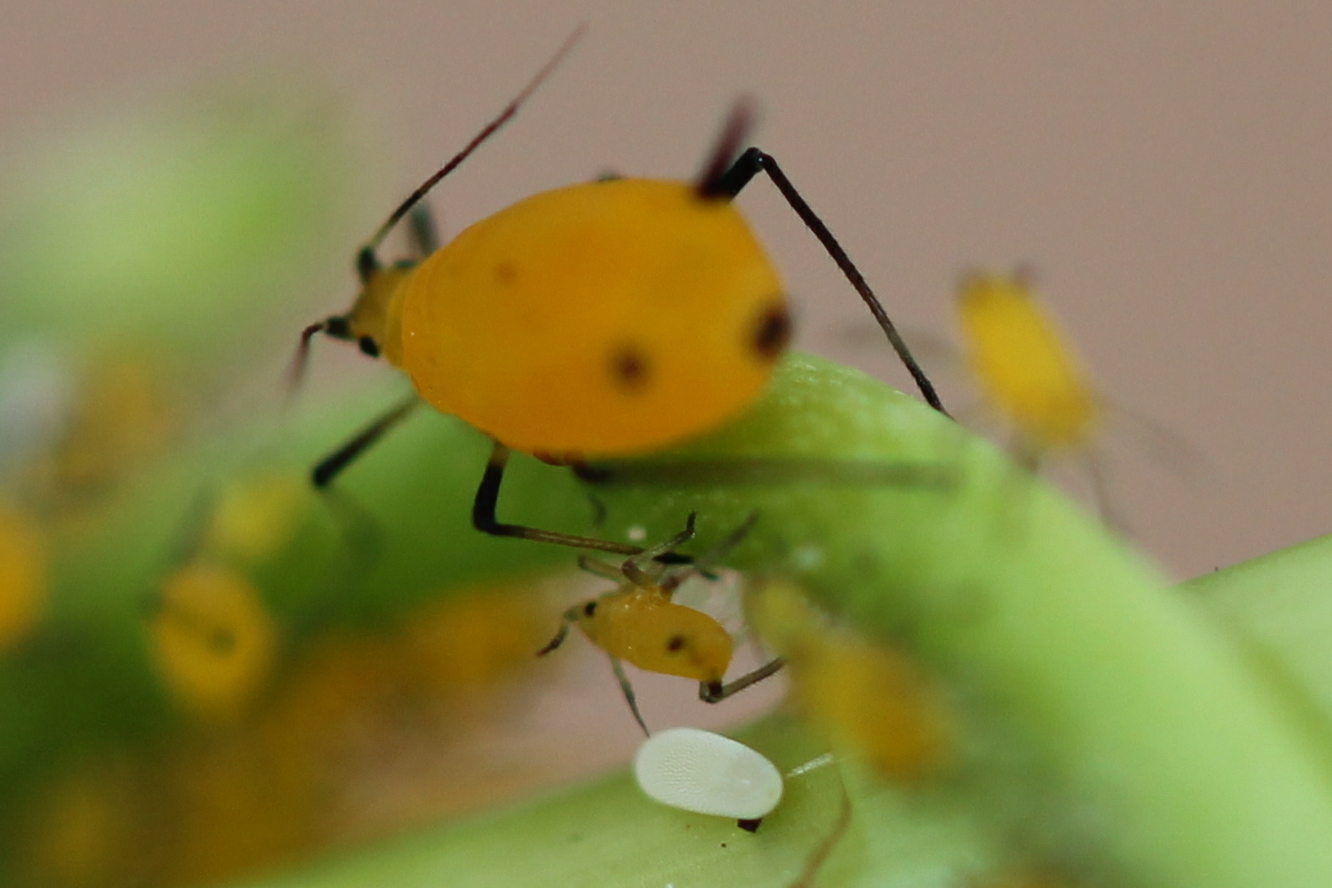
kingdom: Animalia
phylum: Arthropoda
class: Insecta
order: Hemiptera
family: Aphididae
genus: Aphis
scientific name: Aphis nerii
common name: Oleander aphid
